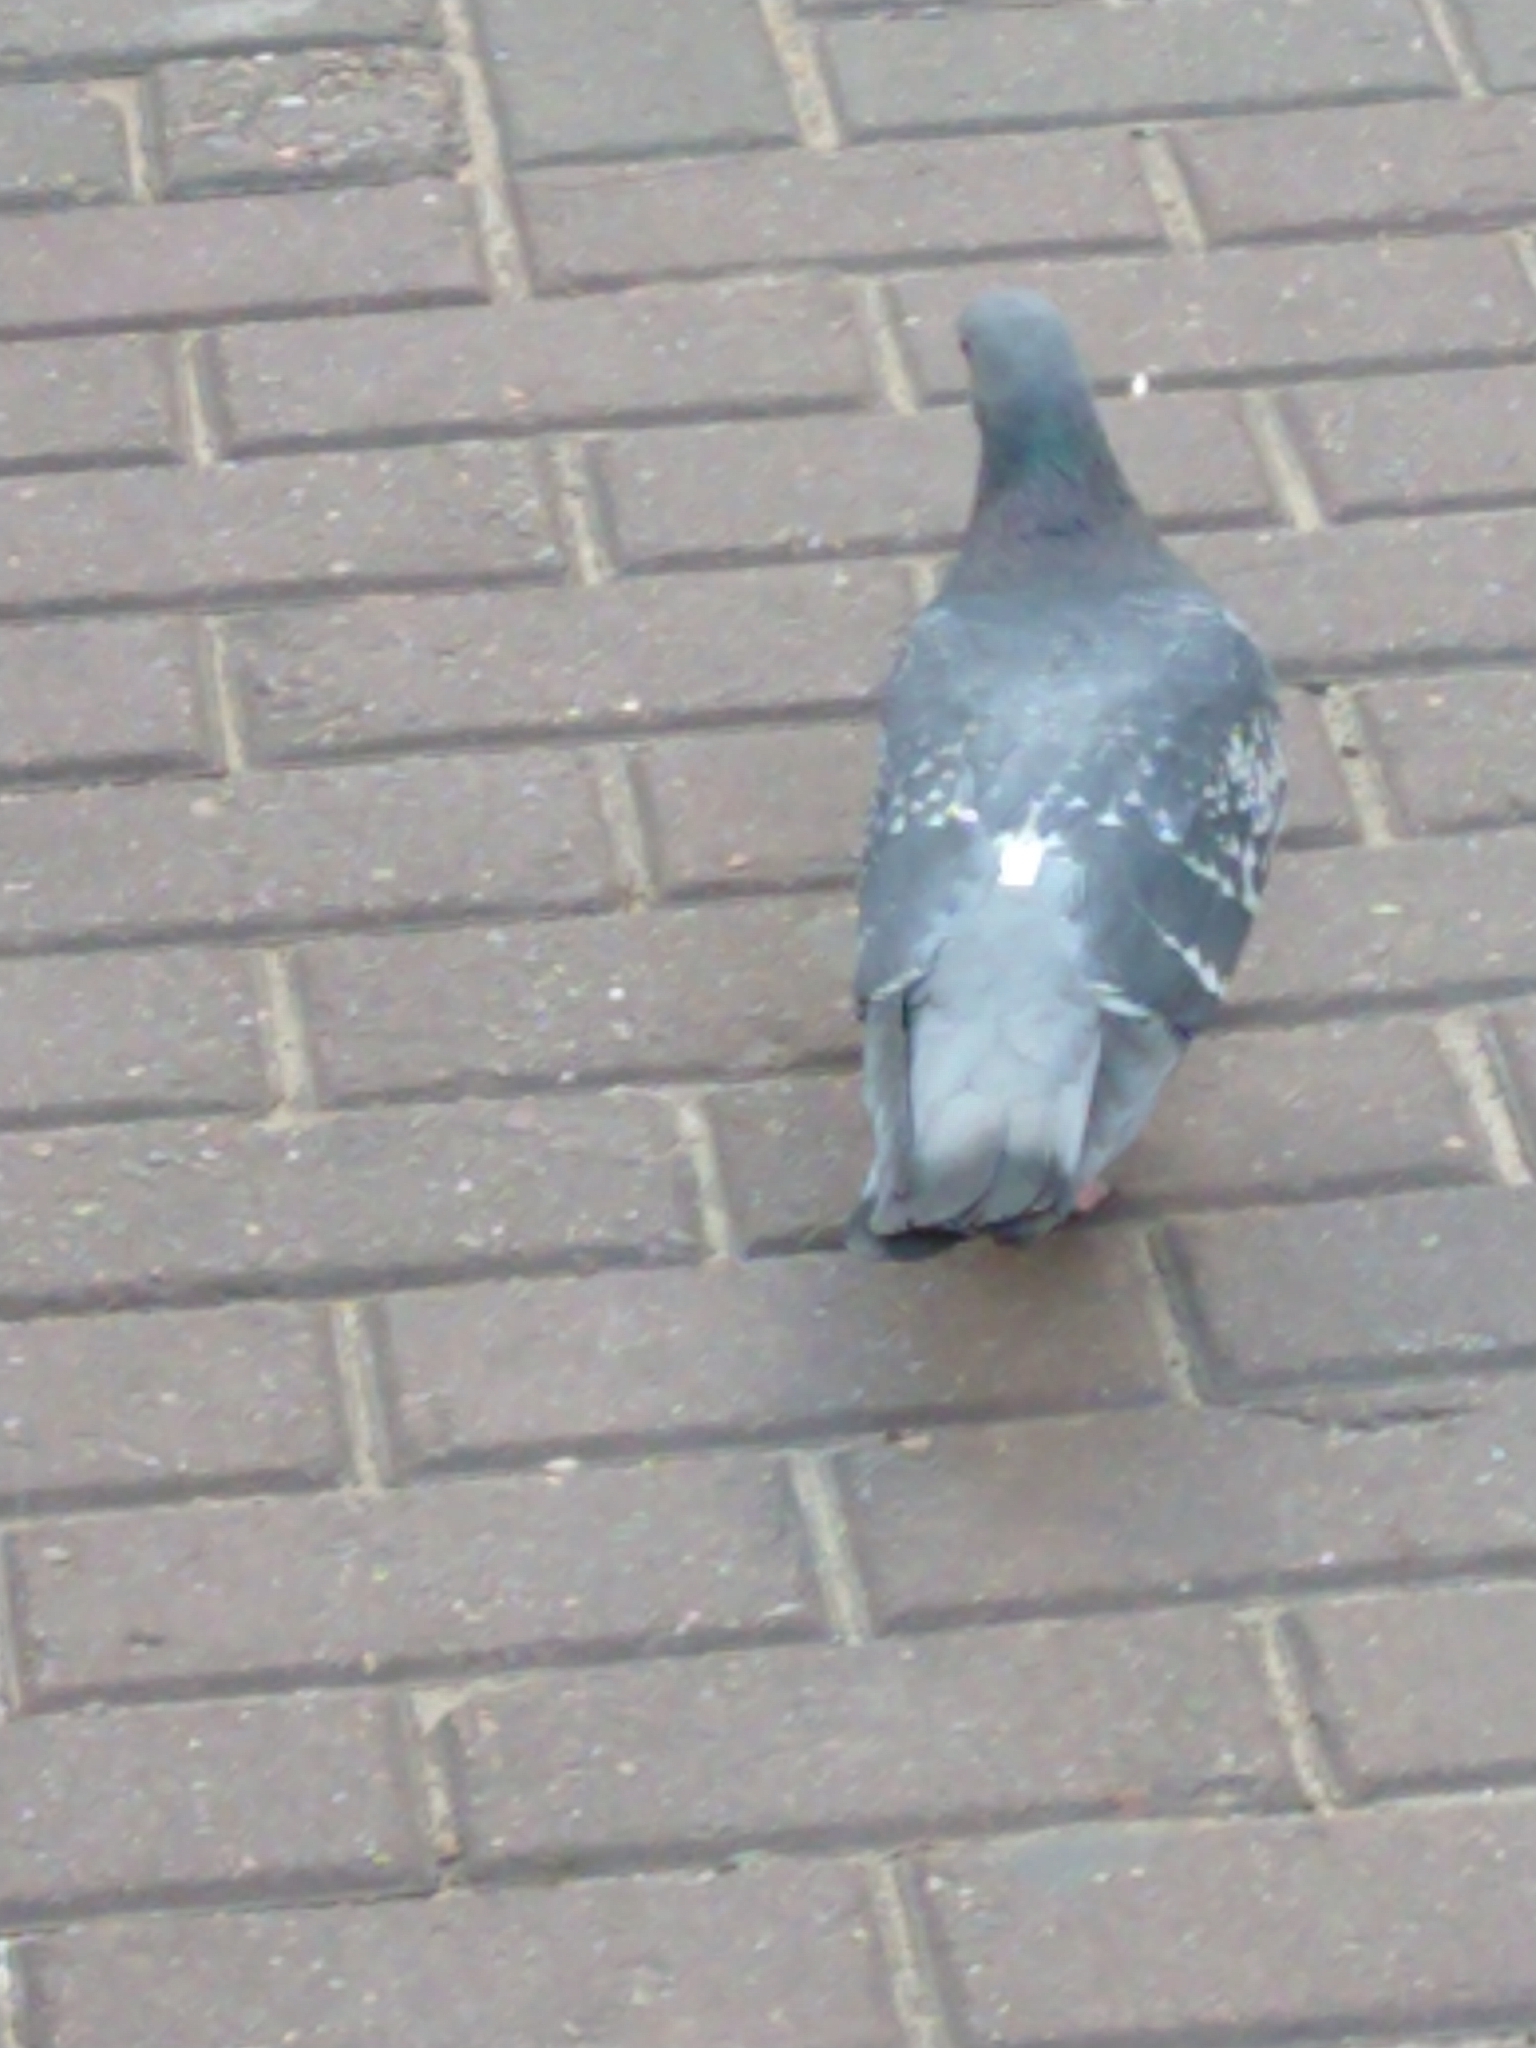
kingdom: Animalia
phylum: Chordata
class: Aves
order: Columbiformes
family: Columbidae
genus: Columba
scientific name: Columba livia
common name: Rock pigeon
